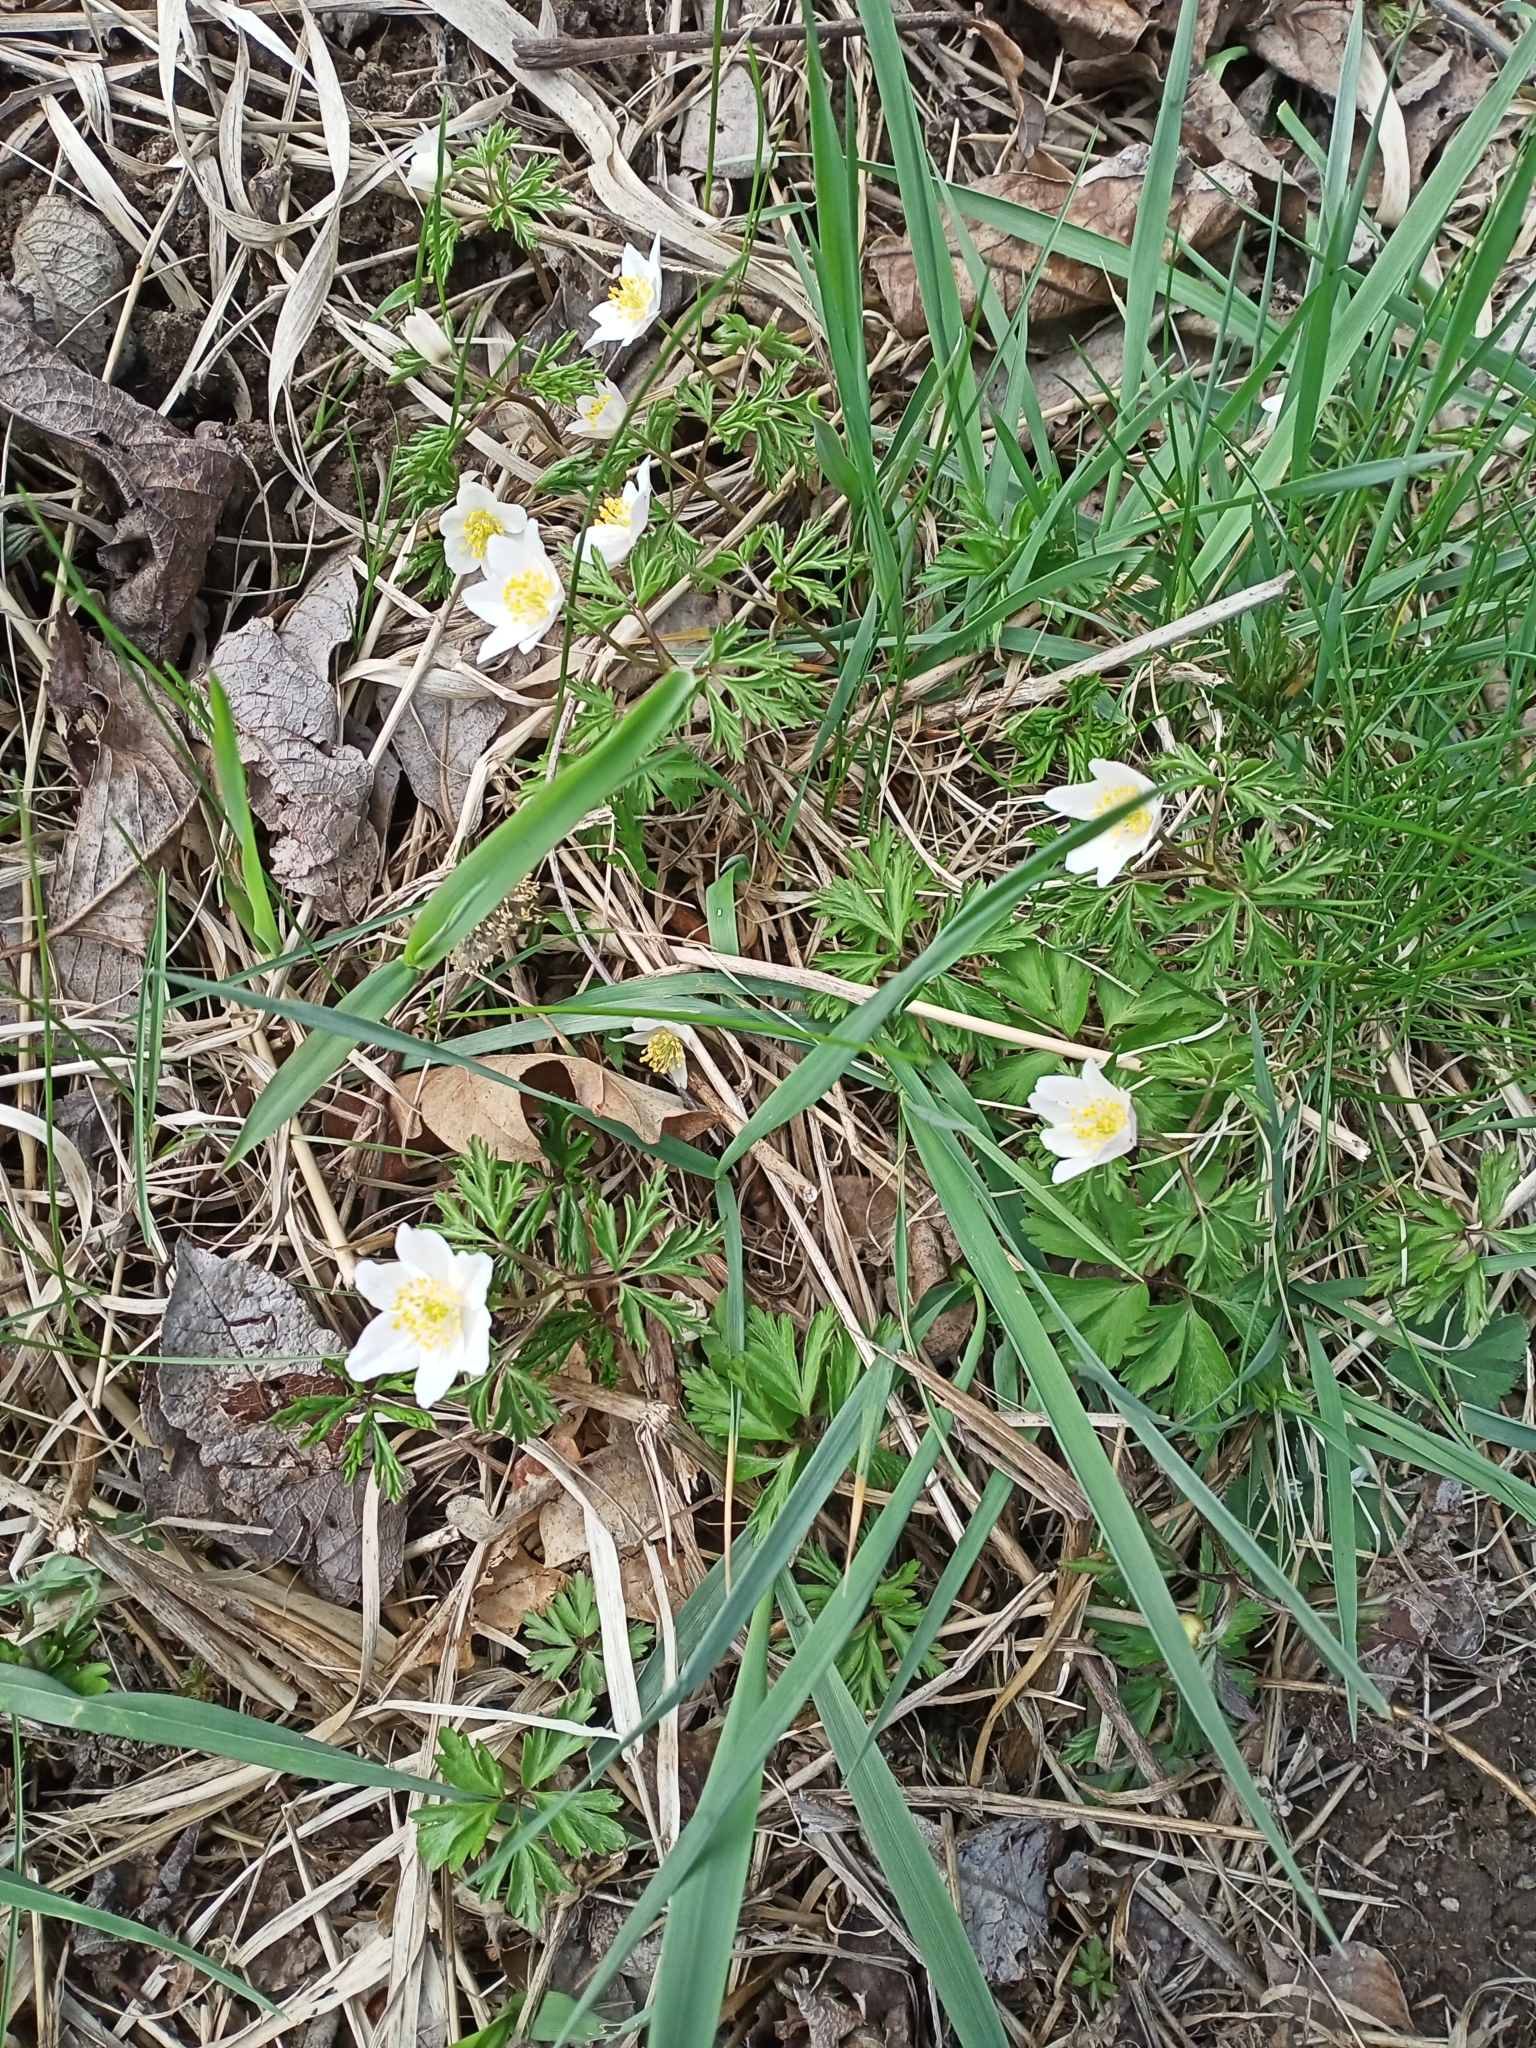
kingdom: Plantae
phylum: Tracheophyta
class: Magnoliopsida
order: Ranunculales
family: Ranunculaceae
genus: Anemone
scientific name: Anemone nemorosa
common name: Wood anemone
